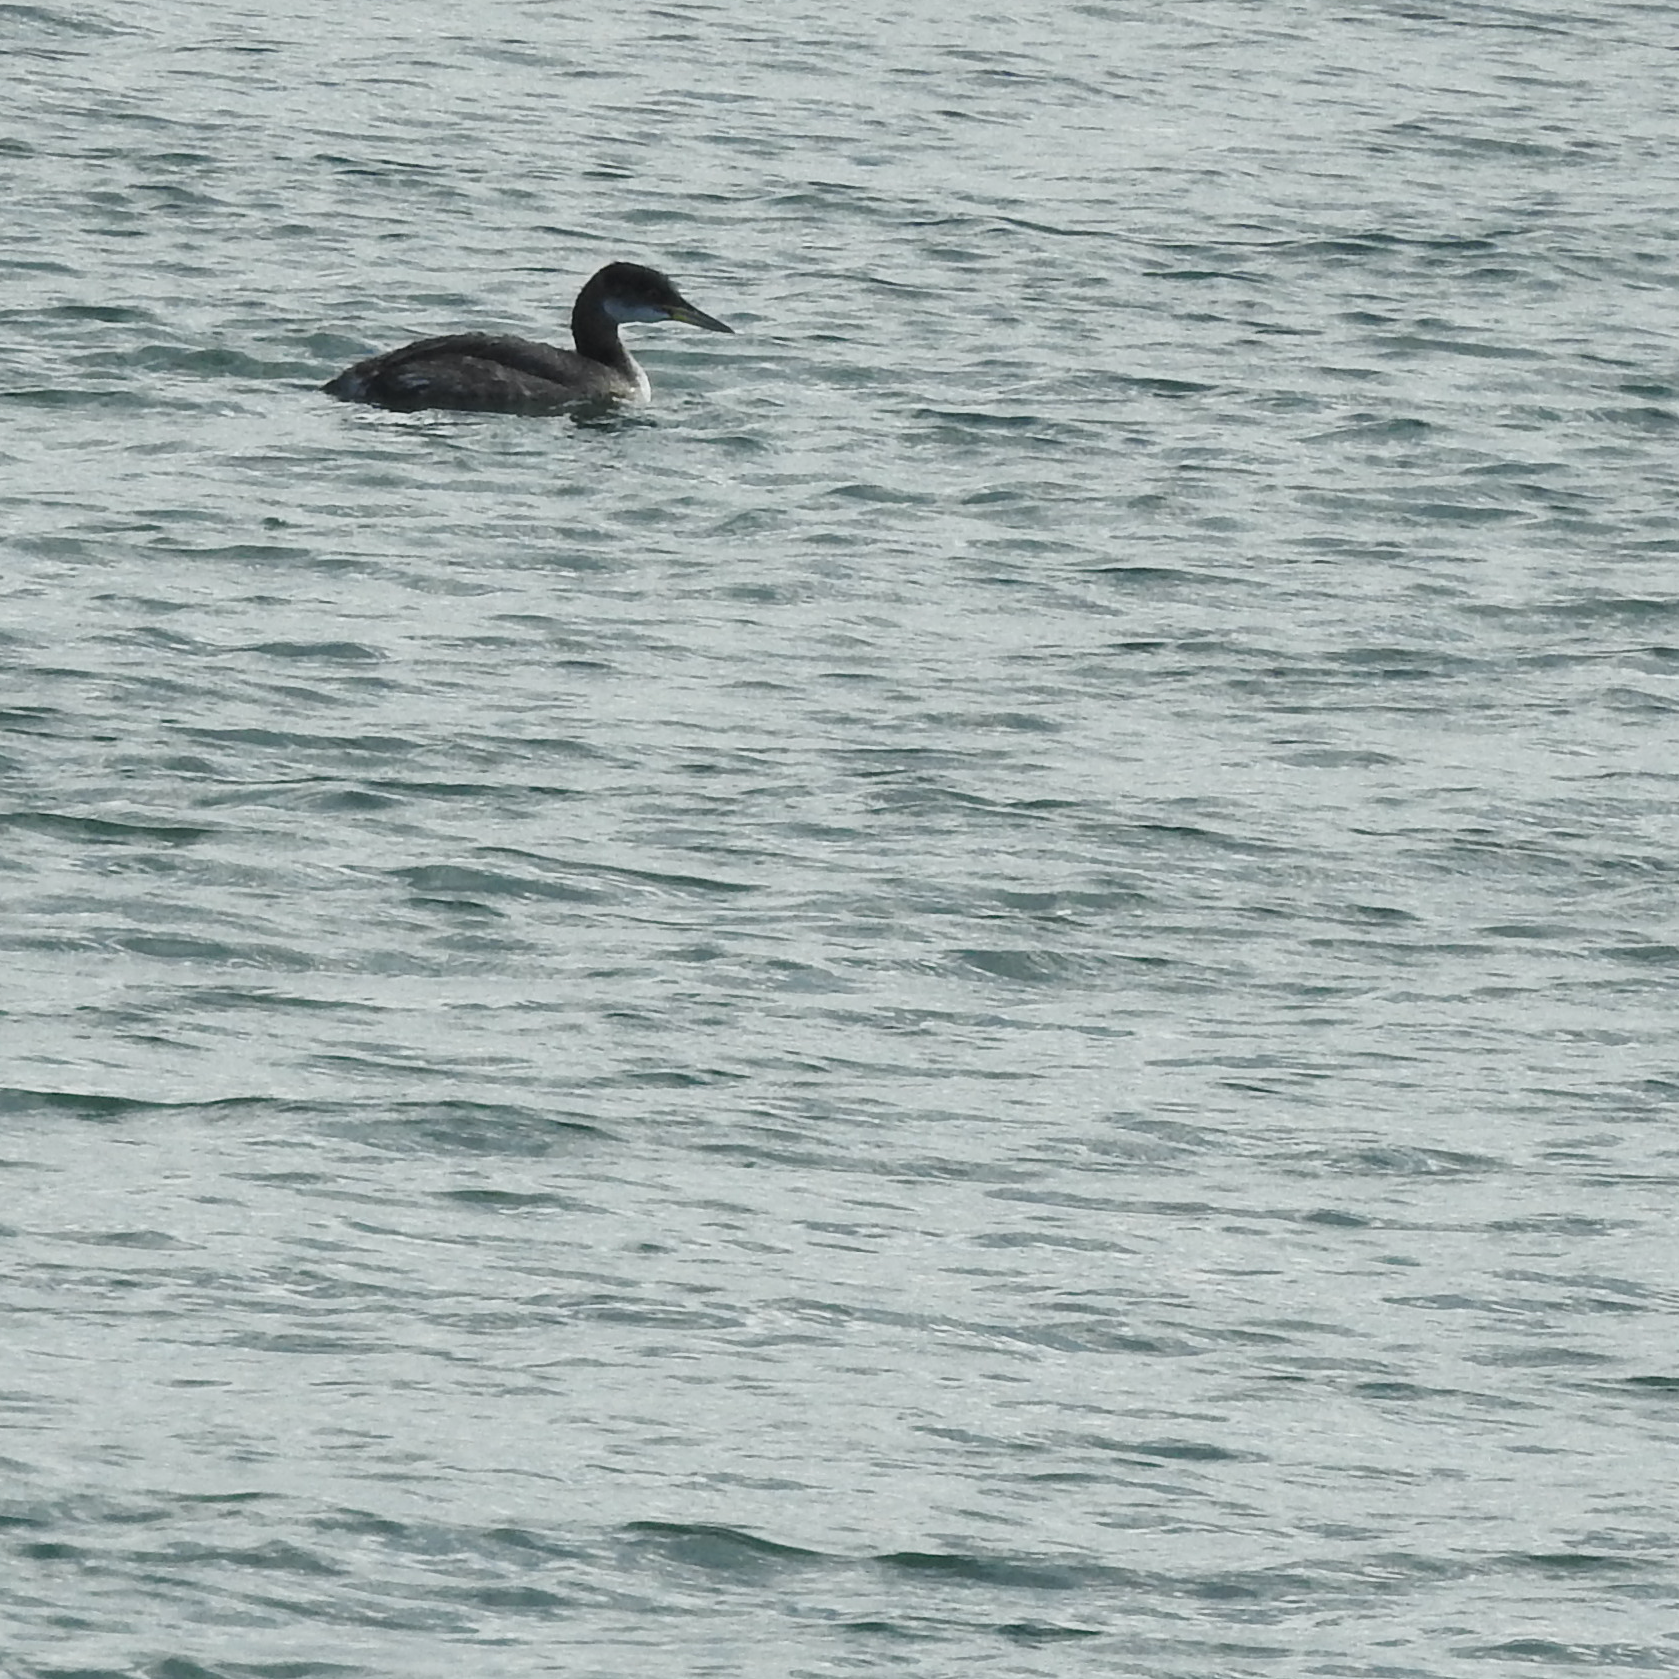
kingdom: Animalia
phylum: Chordata
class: Aves
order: Podicipediformes
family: Podicipedidae
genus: Podiceps
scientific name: Podiceps grisegena
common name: Red-necked grebe
